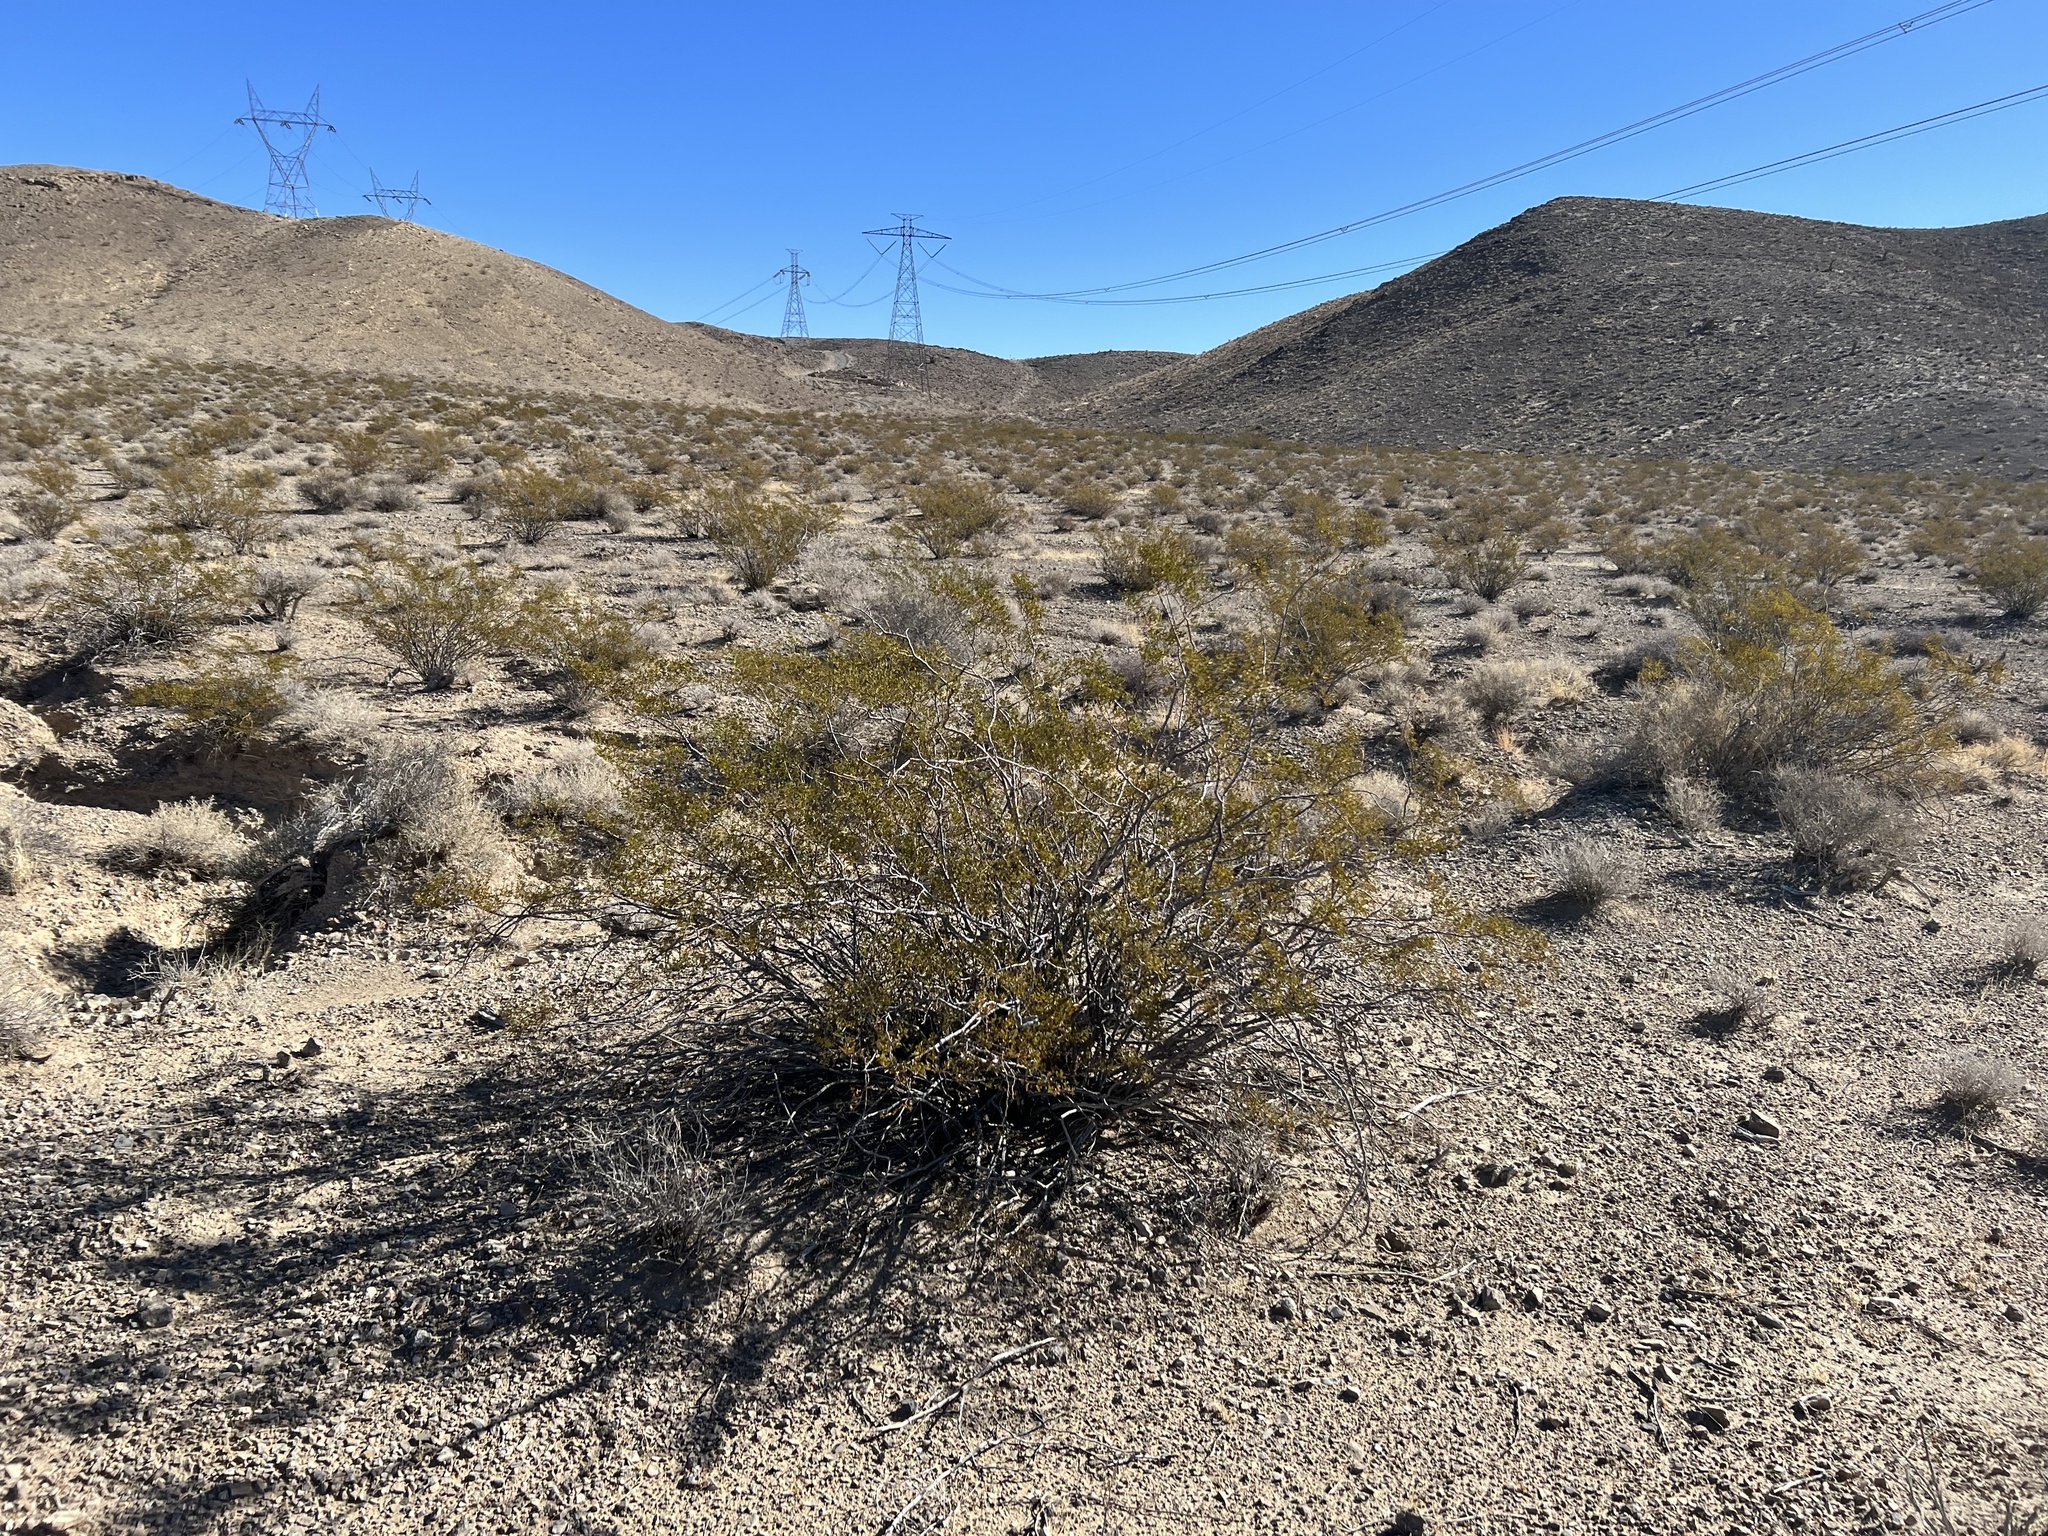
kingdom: Plantae
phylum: Tracheophyta
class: Magnoliopsida
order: Zygophyllales
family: Zygophyllaceae
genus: Larrea
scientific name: Larrea tridentata
